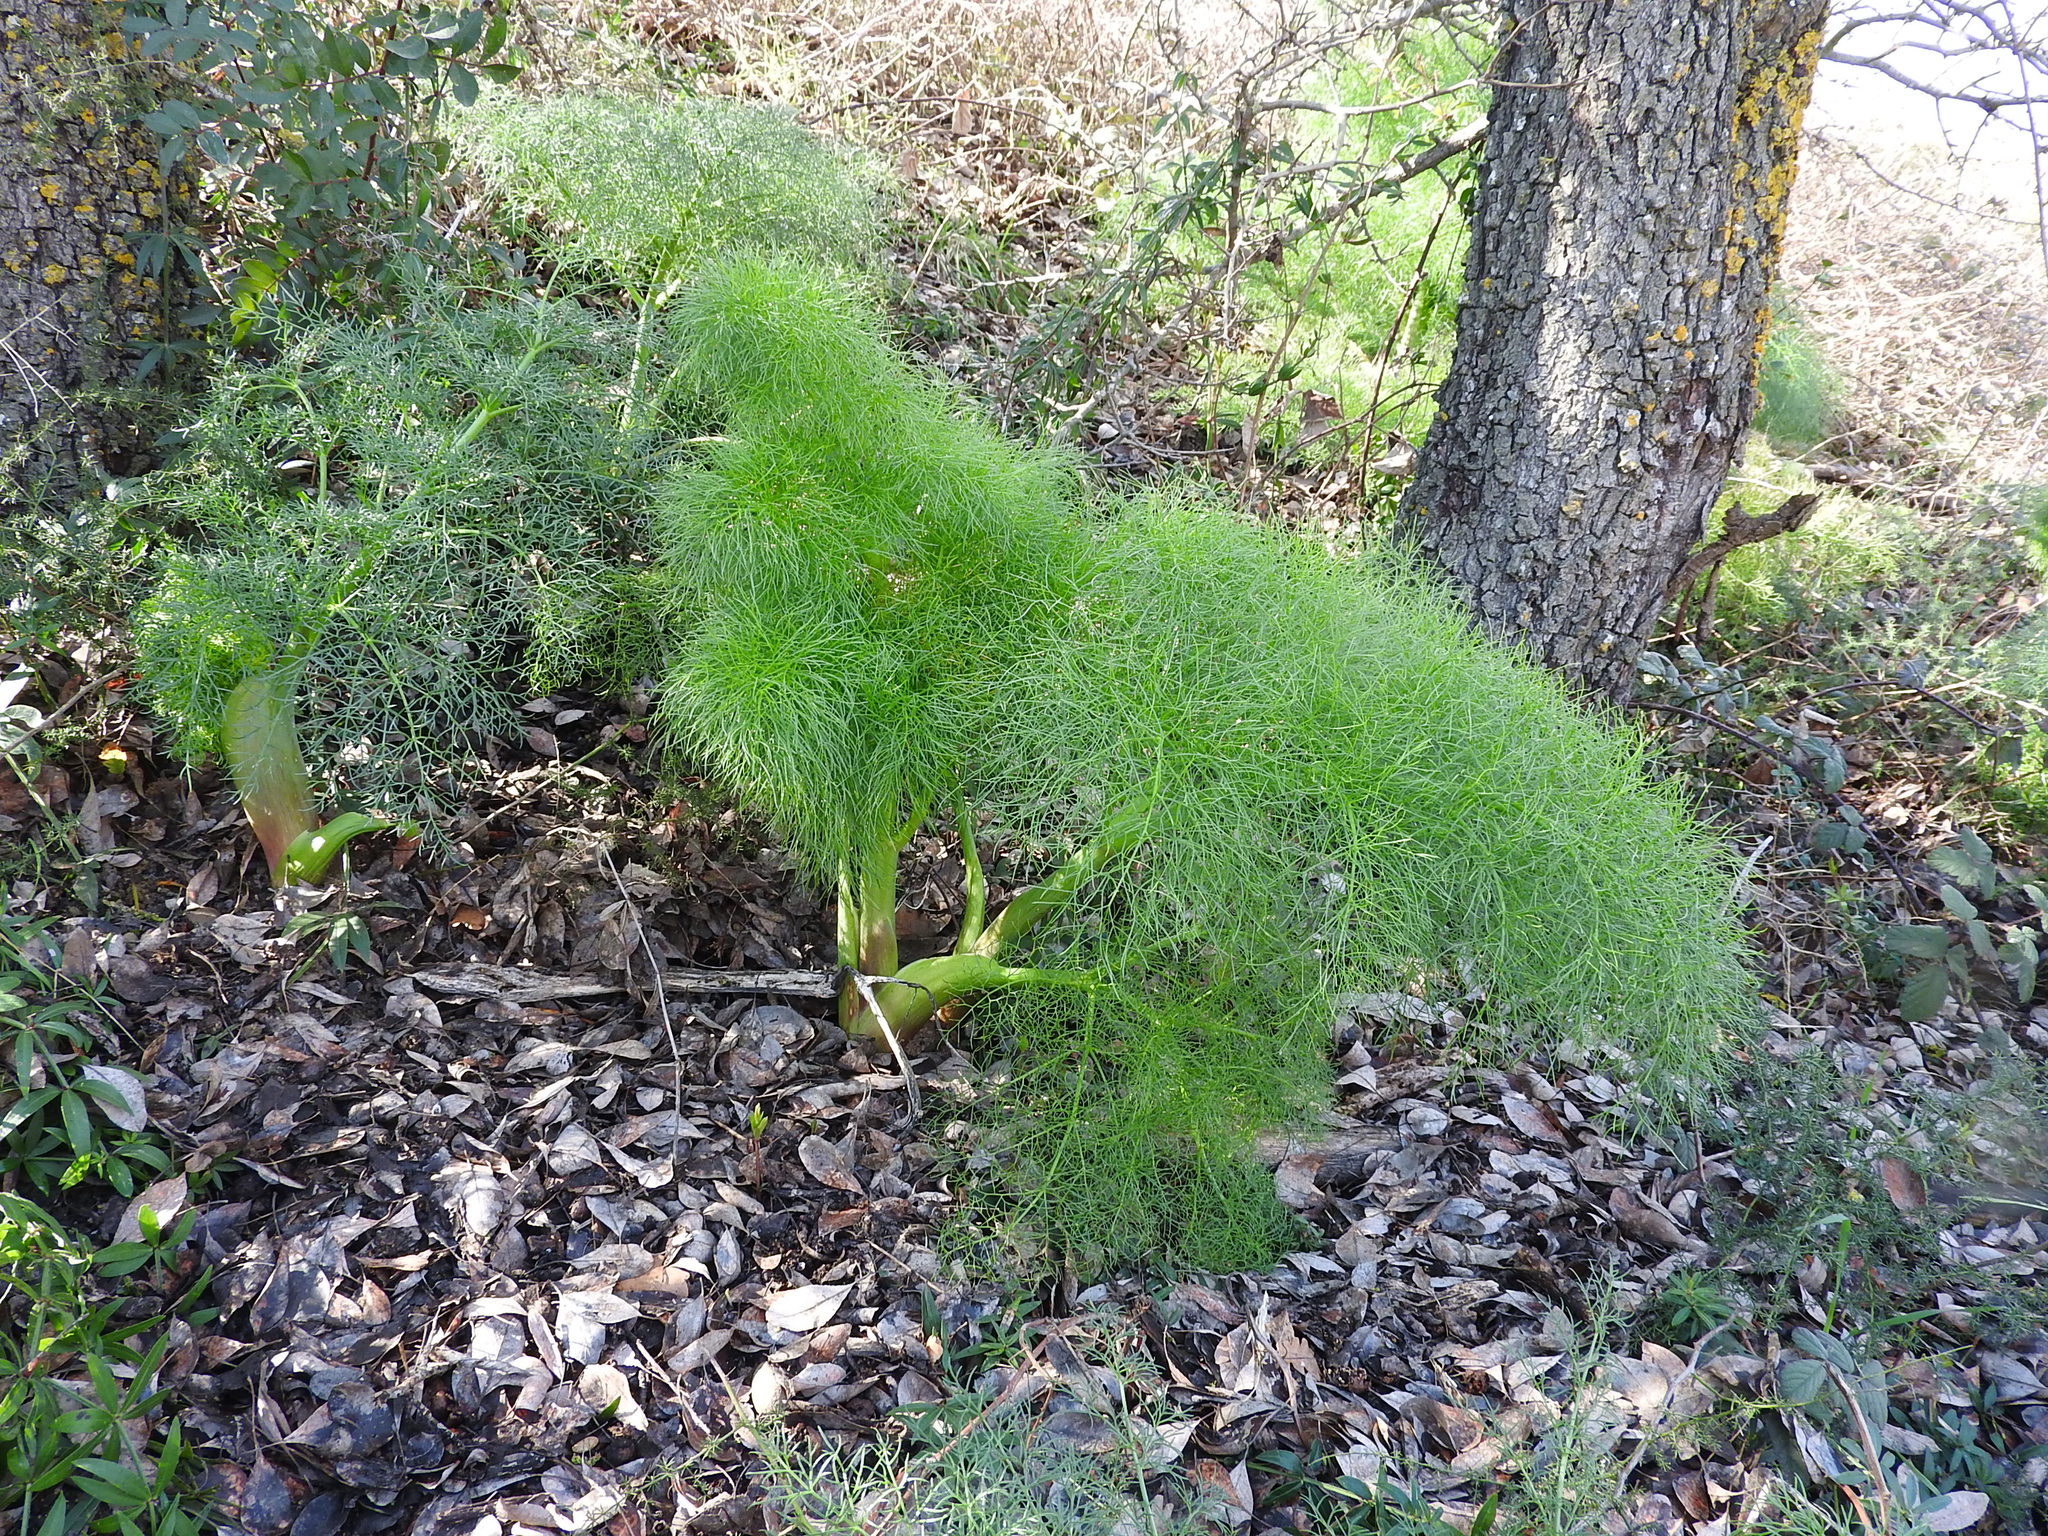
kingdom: Plantae
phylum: Tracheophyta
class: Magnoliopsida
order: Apiales
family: Apiaceae
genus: Ferula
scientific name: Ferula communis
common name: Giant fennel
